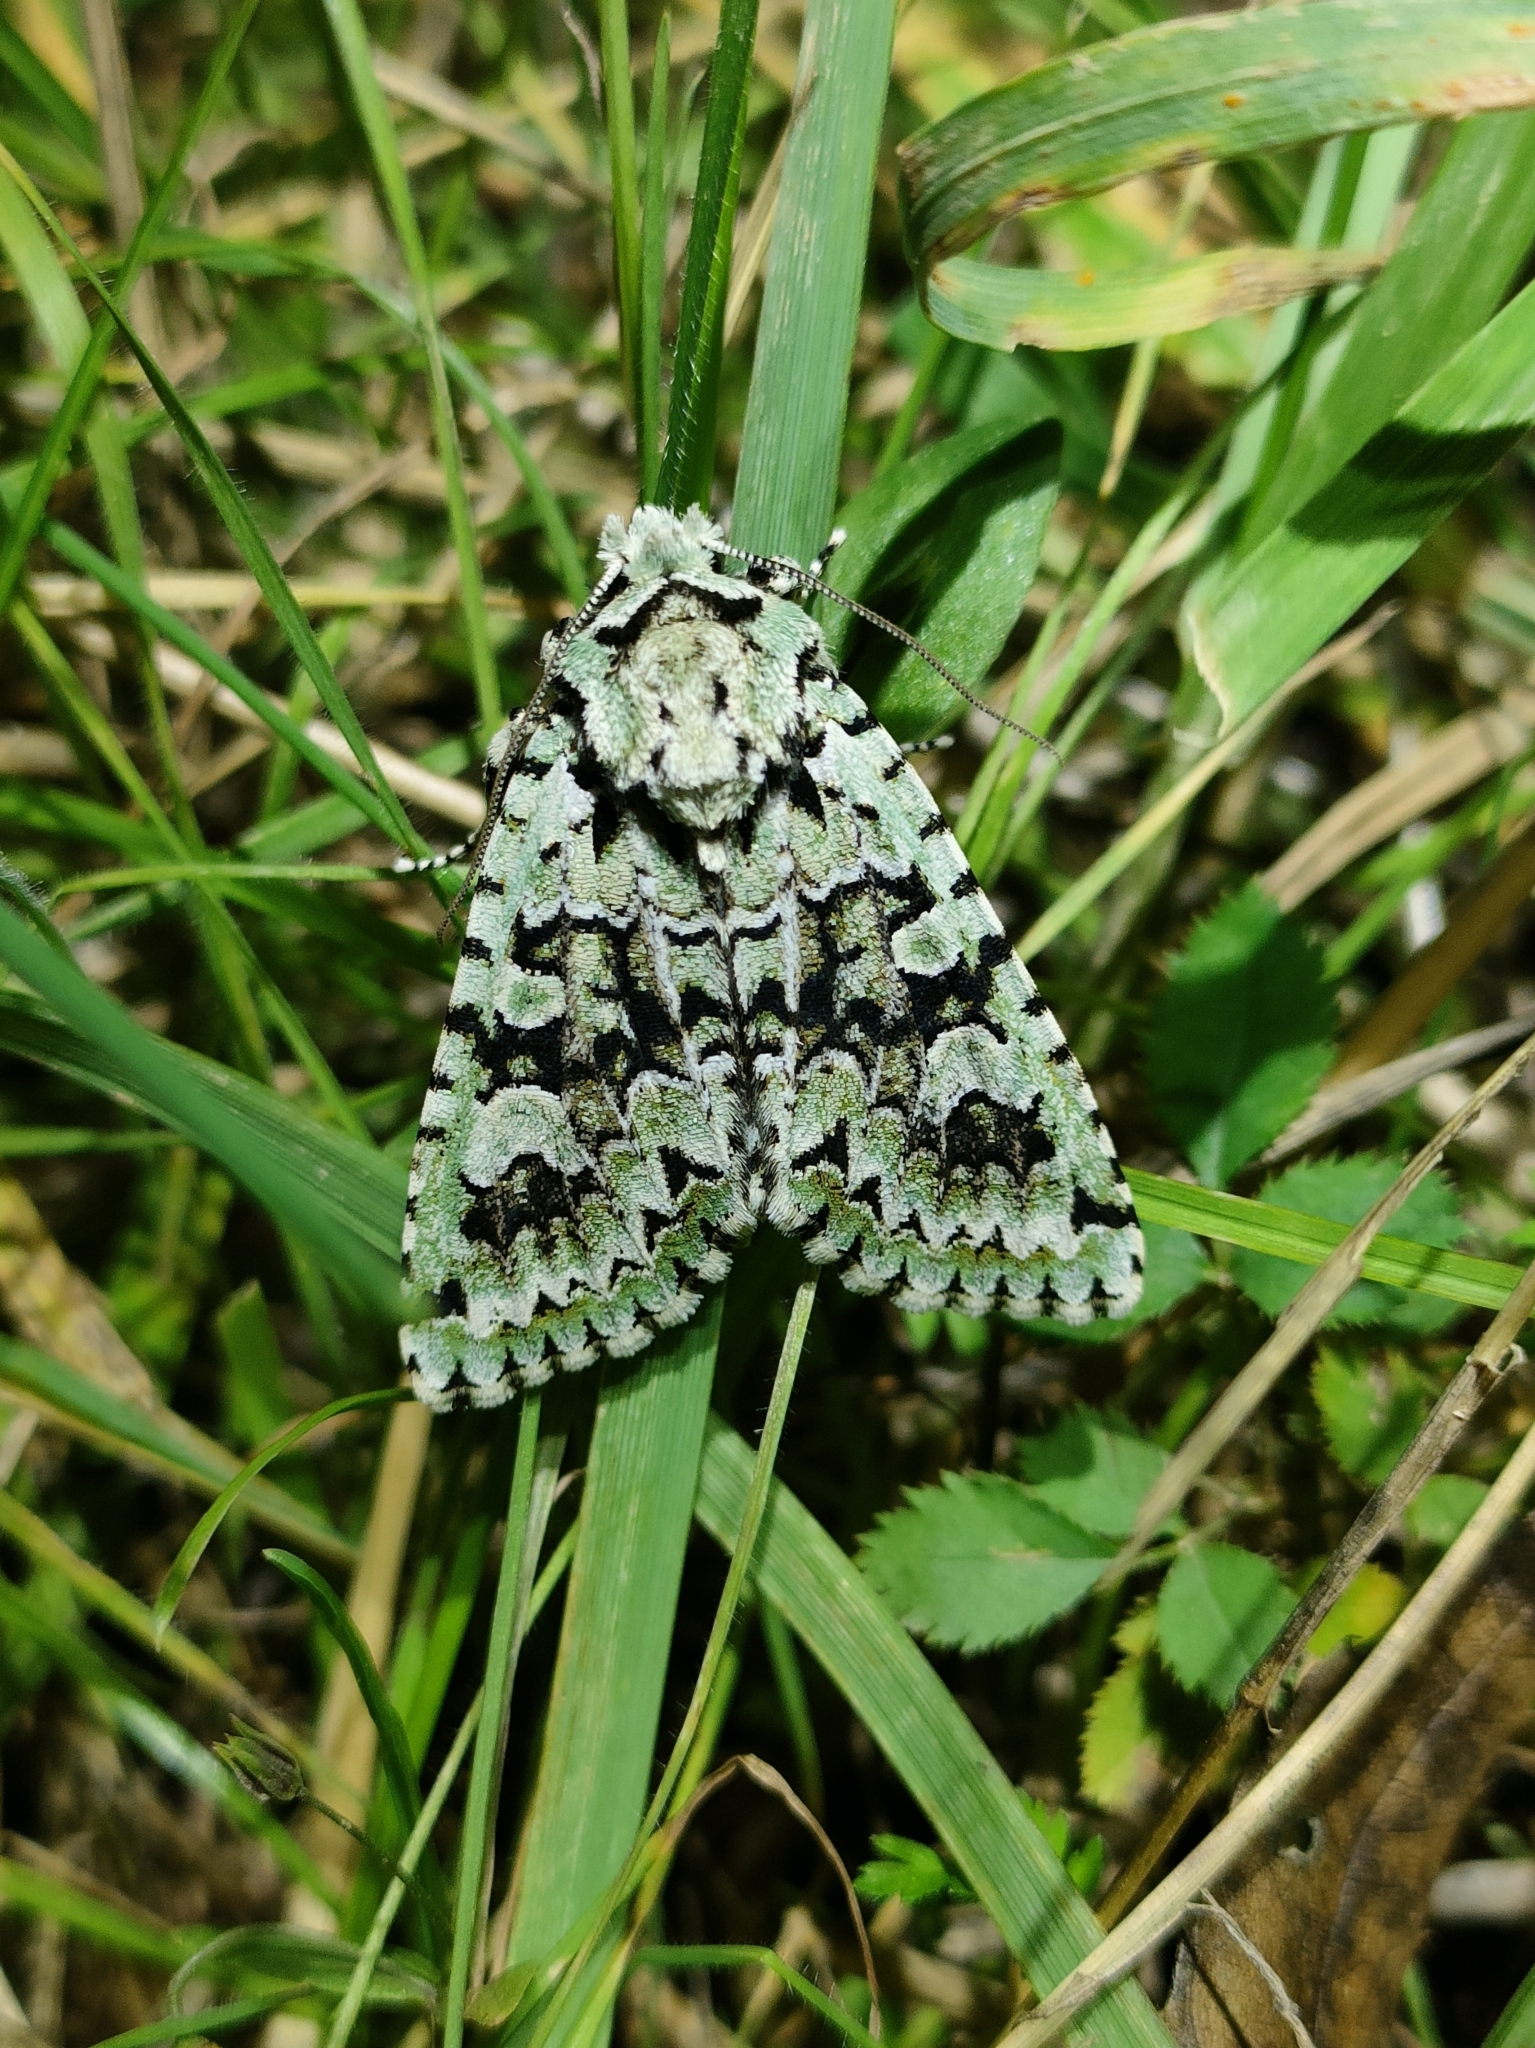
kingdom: Animalia
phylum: Arthropoda
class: Insecta
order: Lepidoptera
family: Noctuidae
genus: Griposia
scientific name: Griposia aprilina
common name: Merveille du jour
